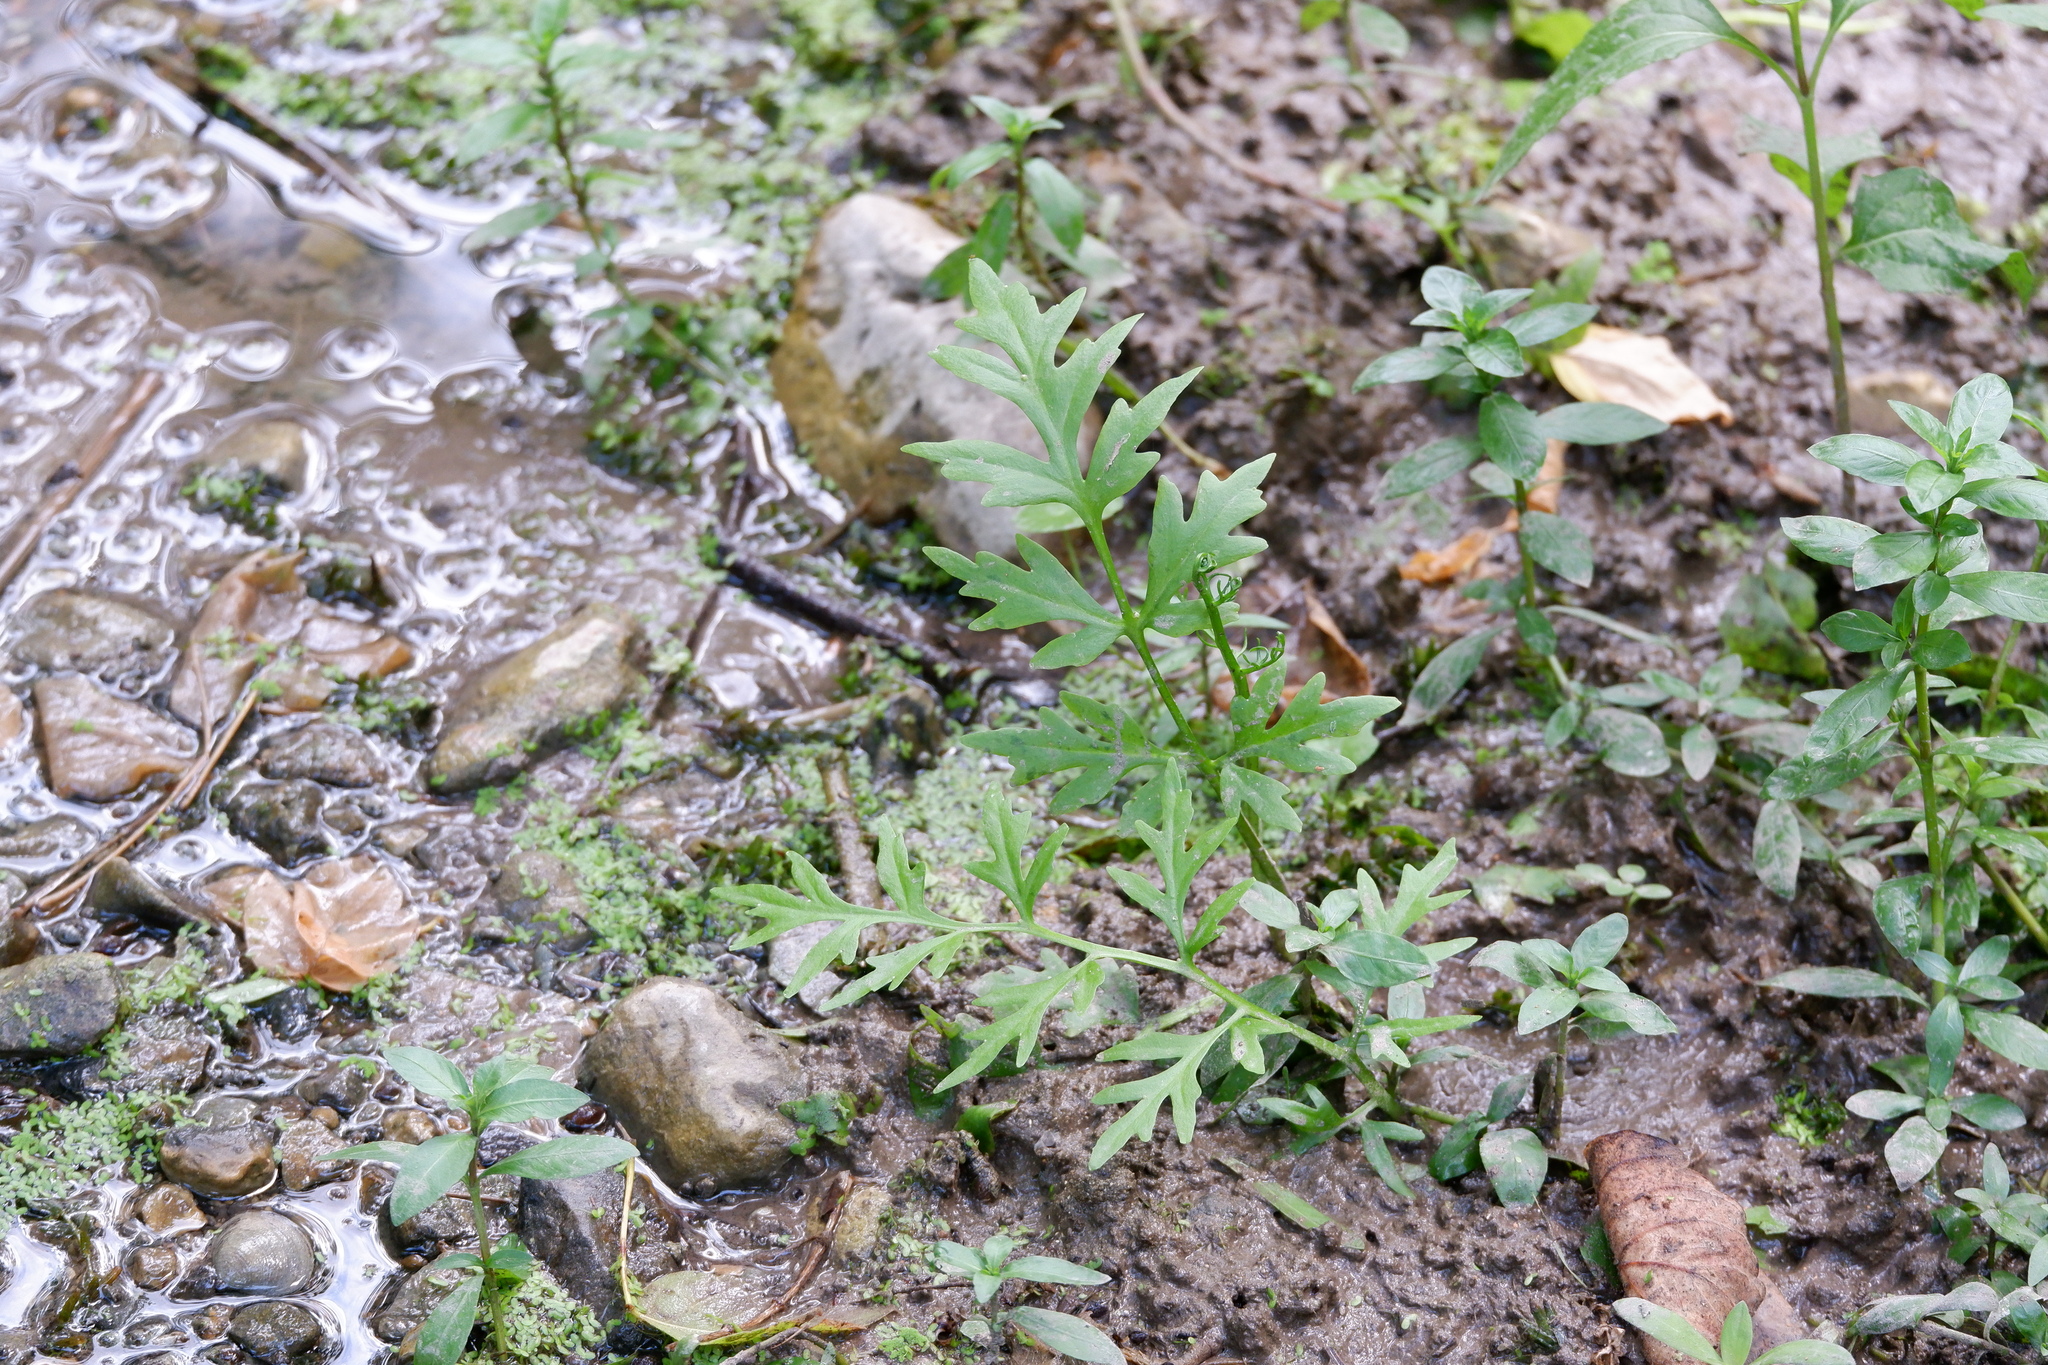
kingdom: Plantae
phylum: Tracheophyta
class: Polypodiopsida
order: Polypodiales
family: Pteridaceae
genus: Ceratopteris
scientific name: Ceratopteris thalictroides
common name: Water fern
